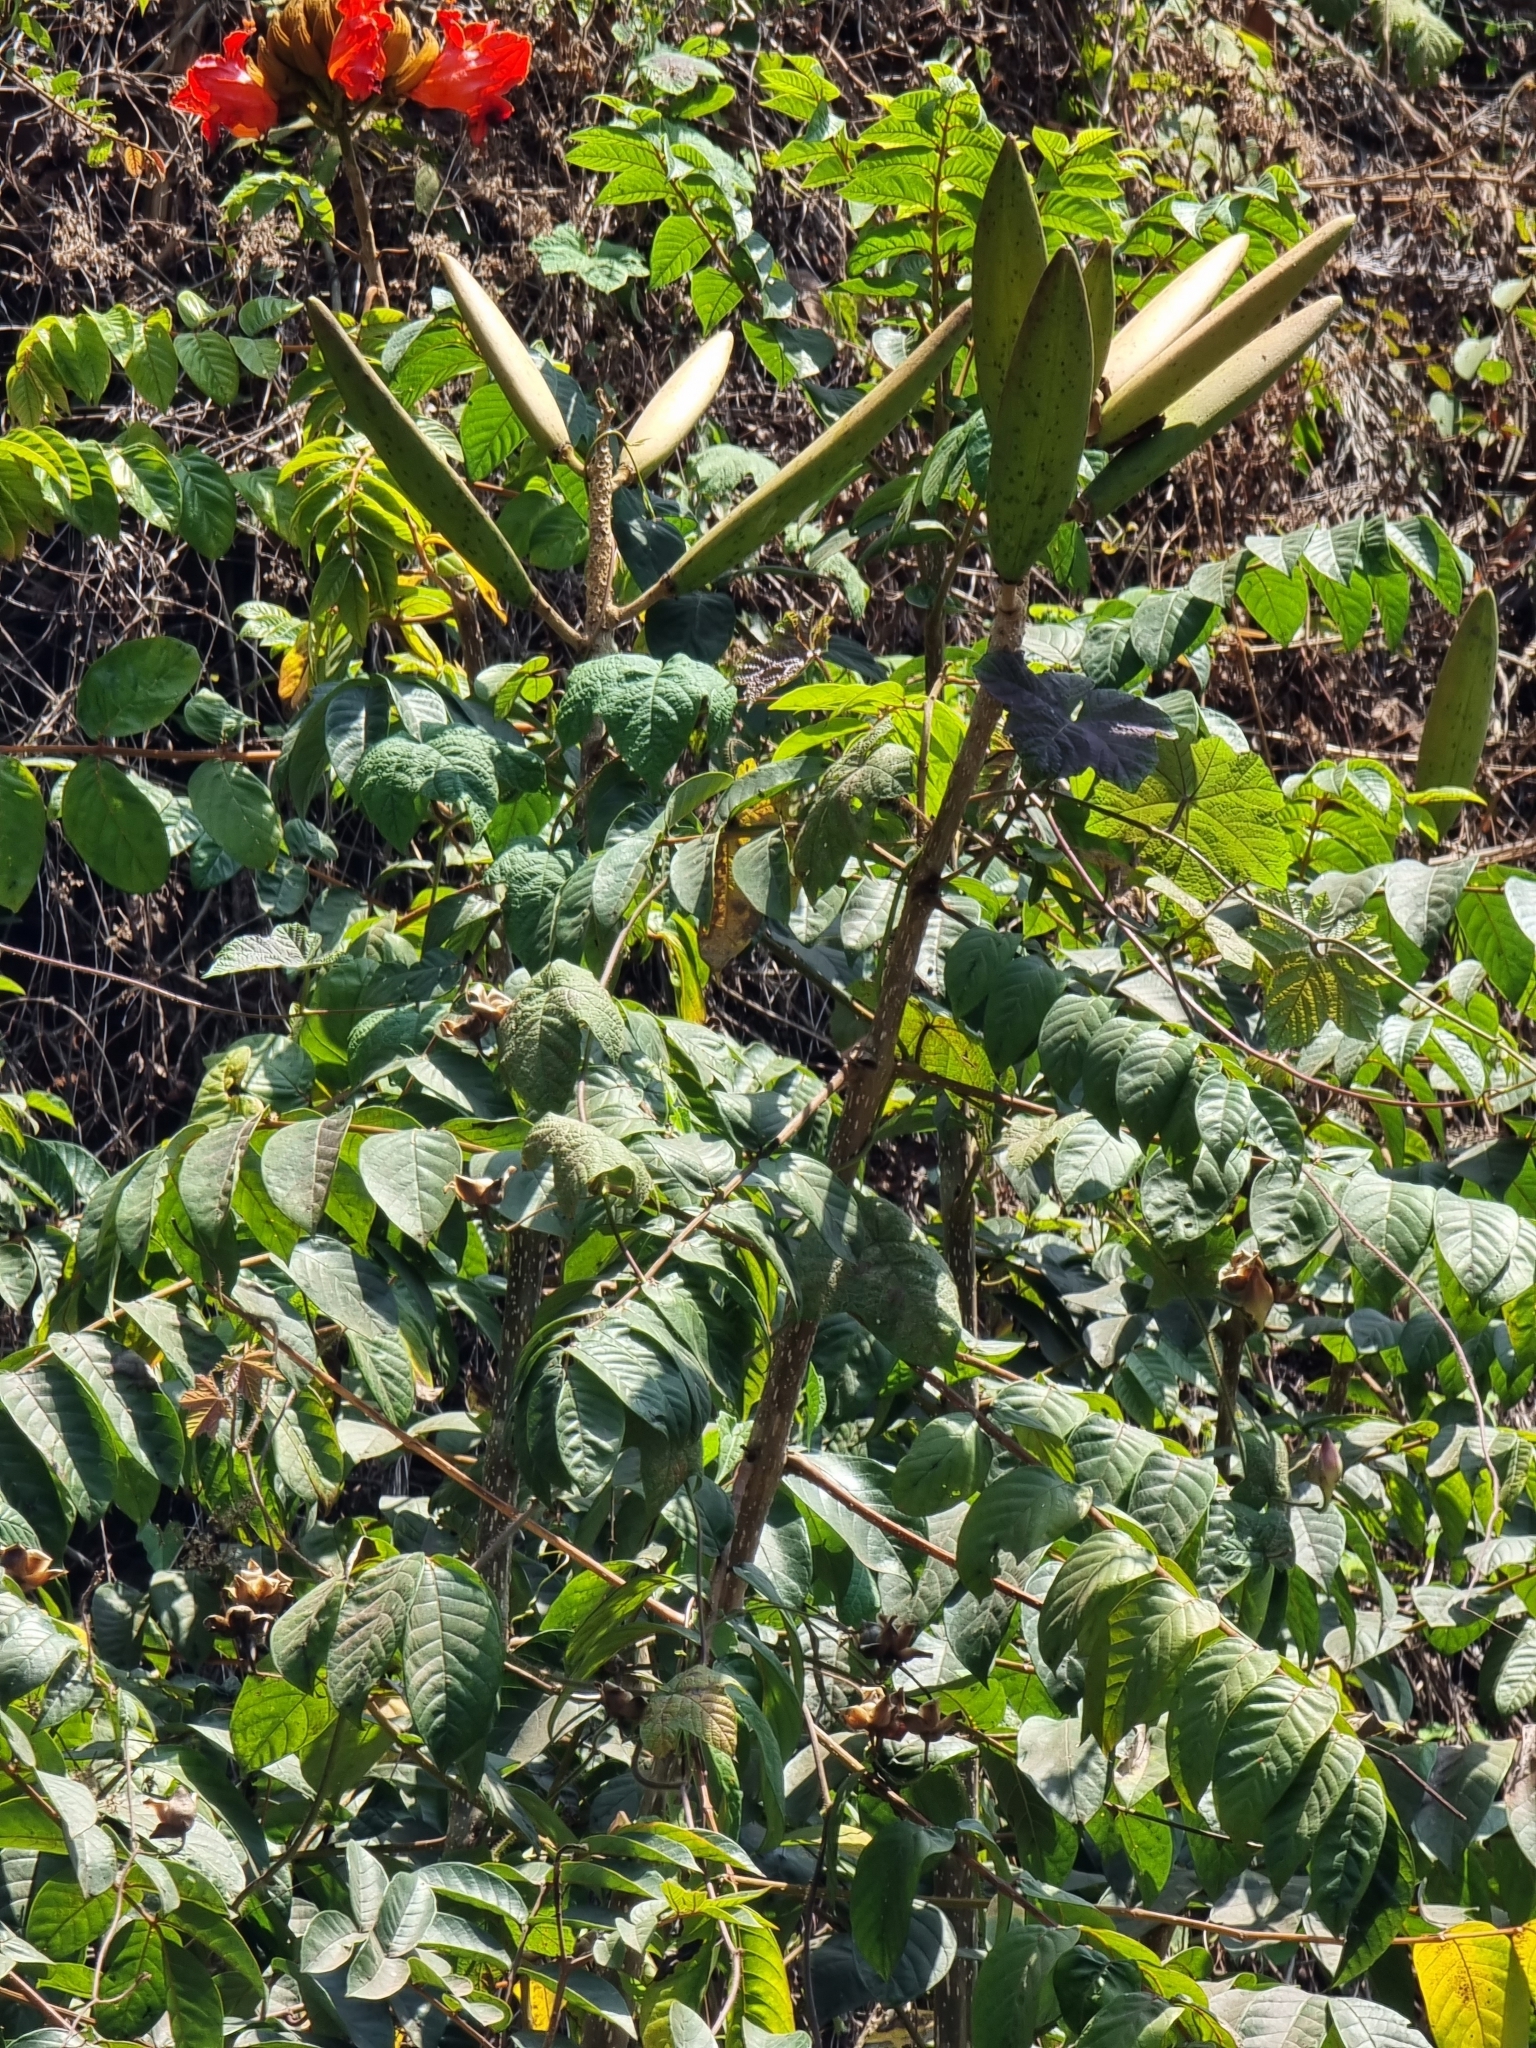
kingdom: Plantae
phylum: Tracheophyta
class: Magnoliopsida
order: Lamiales
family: Bignoniaceae
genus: Spathodea
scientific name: Spathodea campanulata
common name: African tuliptree
